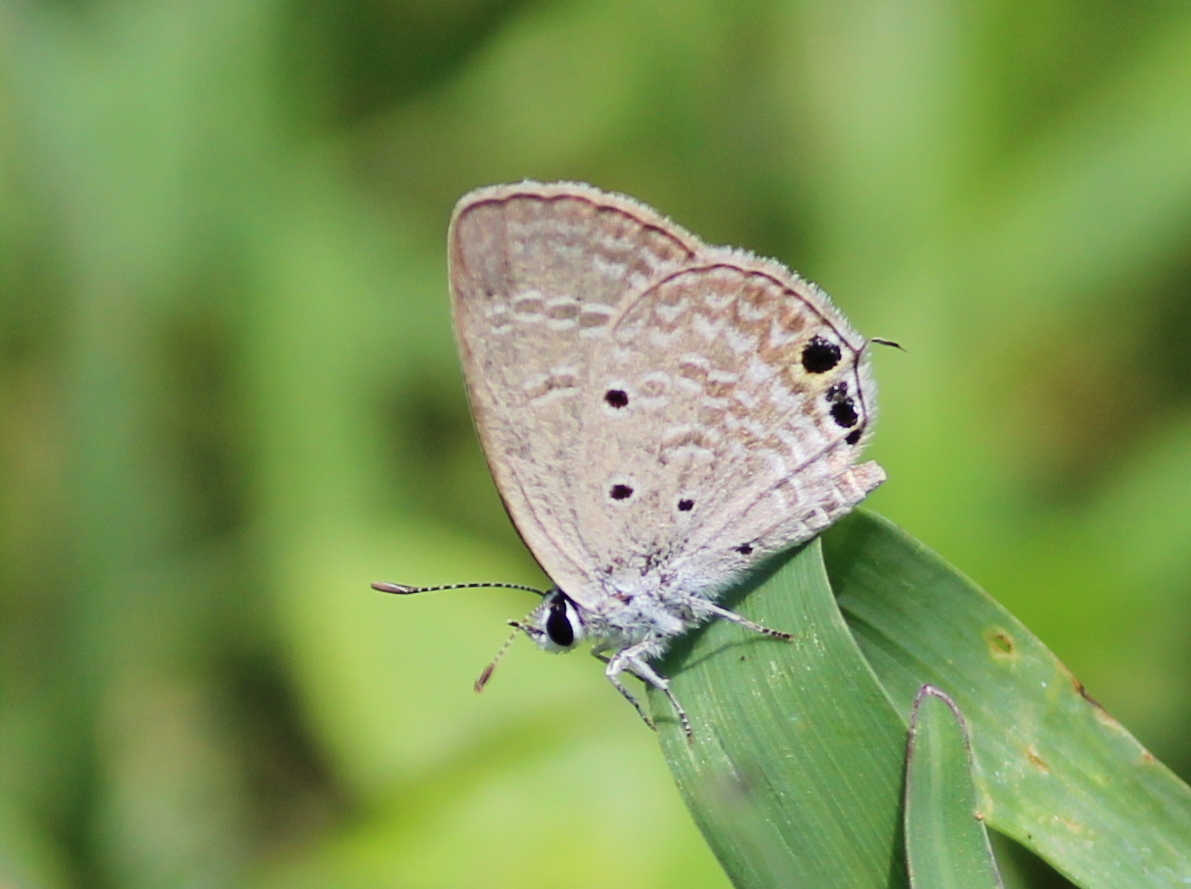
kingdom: Animalia
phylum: Arthropoda
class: Insecta
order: Lepidoptera
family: Lycaenidae
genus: Luthrodes
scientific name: Luthrodes pandava
